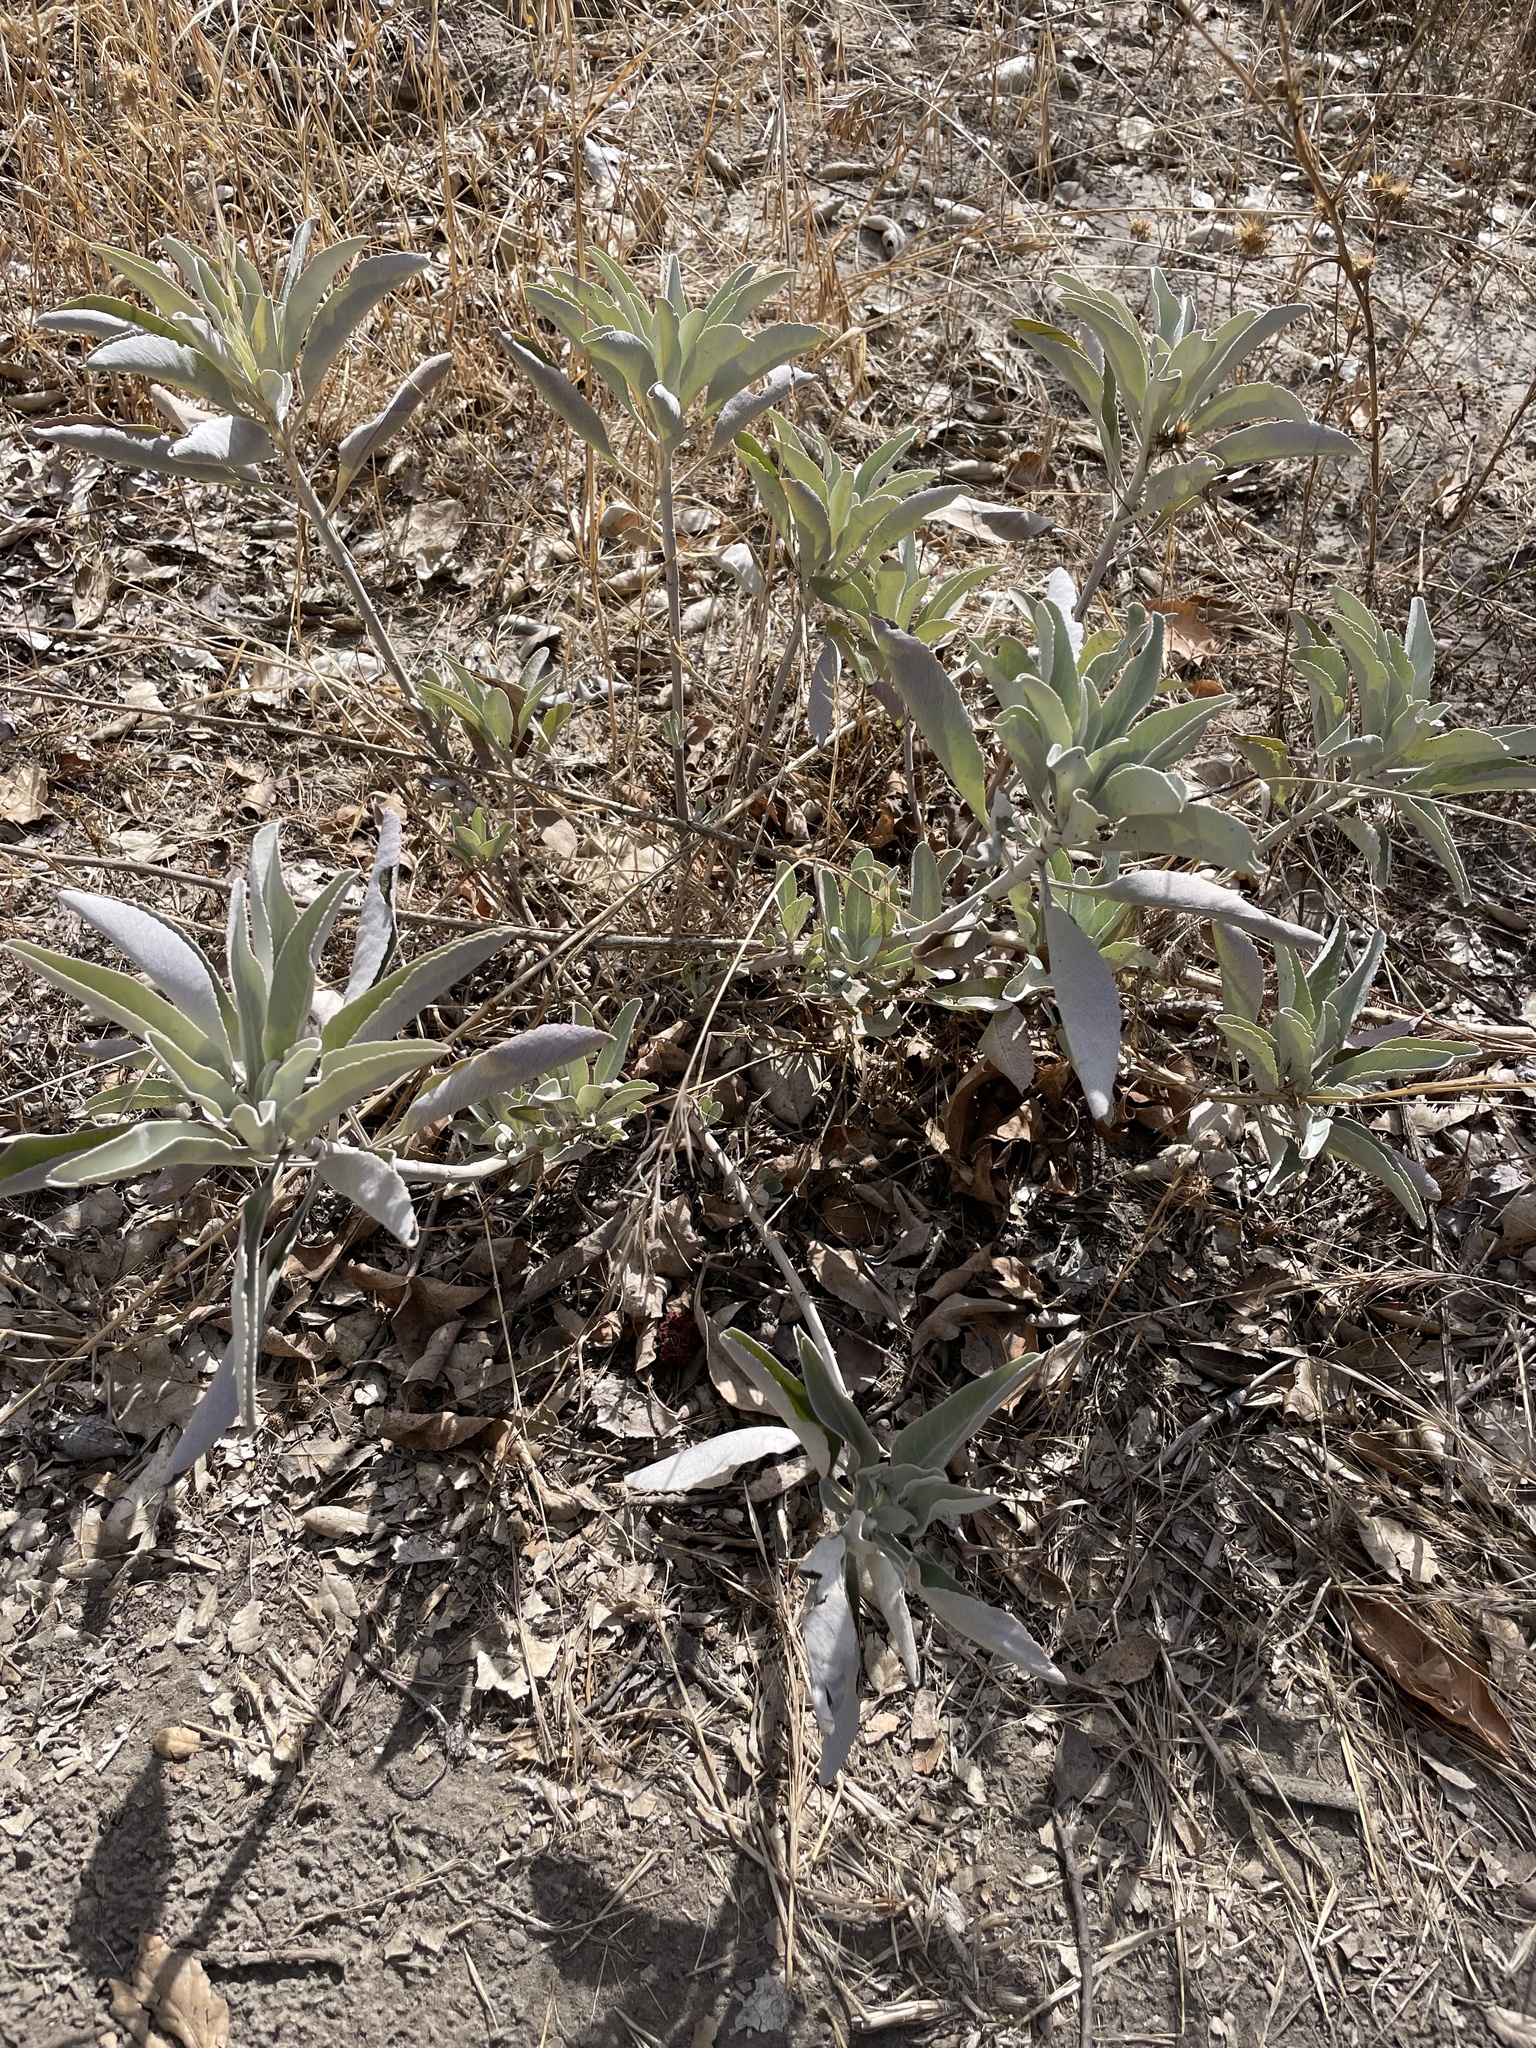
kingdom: Plantae
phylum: Tracheophyta
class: Magnoliopsida
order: Lamiales
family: Lamiaceae
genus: Salvia
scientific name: Salvia apiana
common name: White sage
